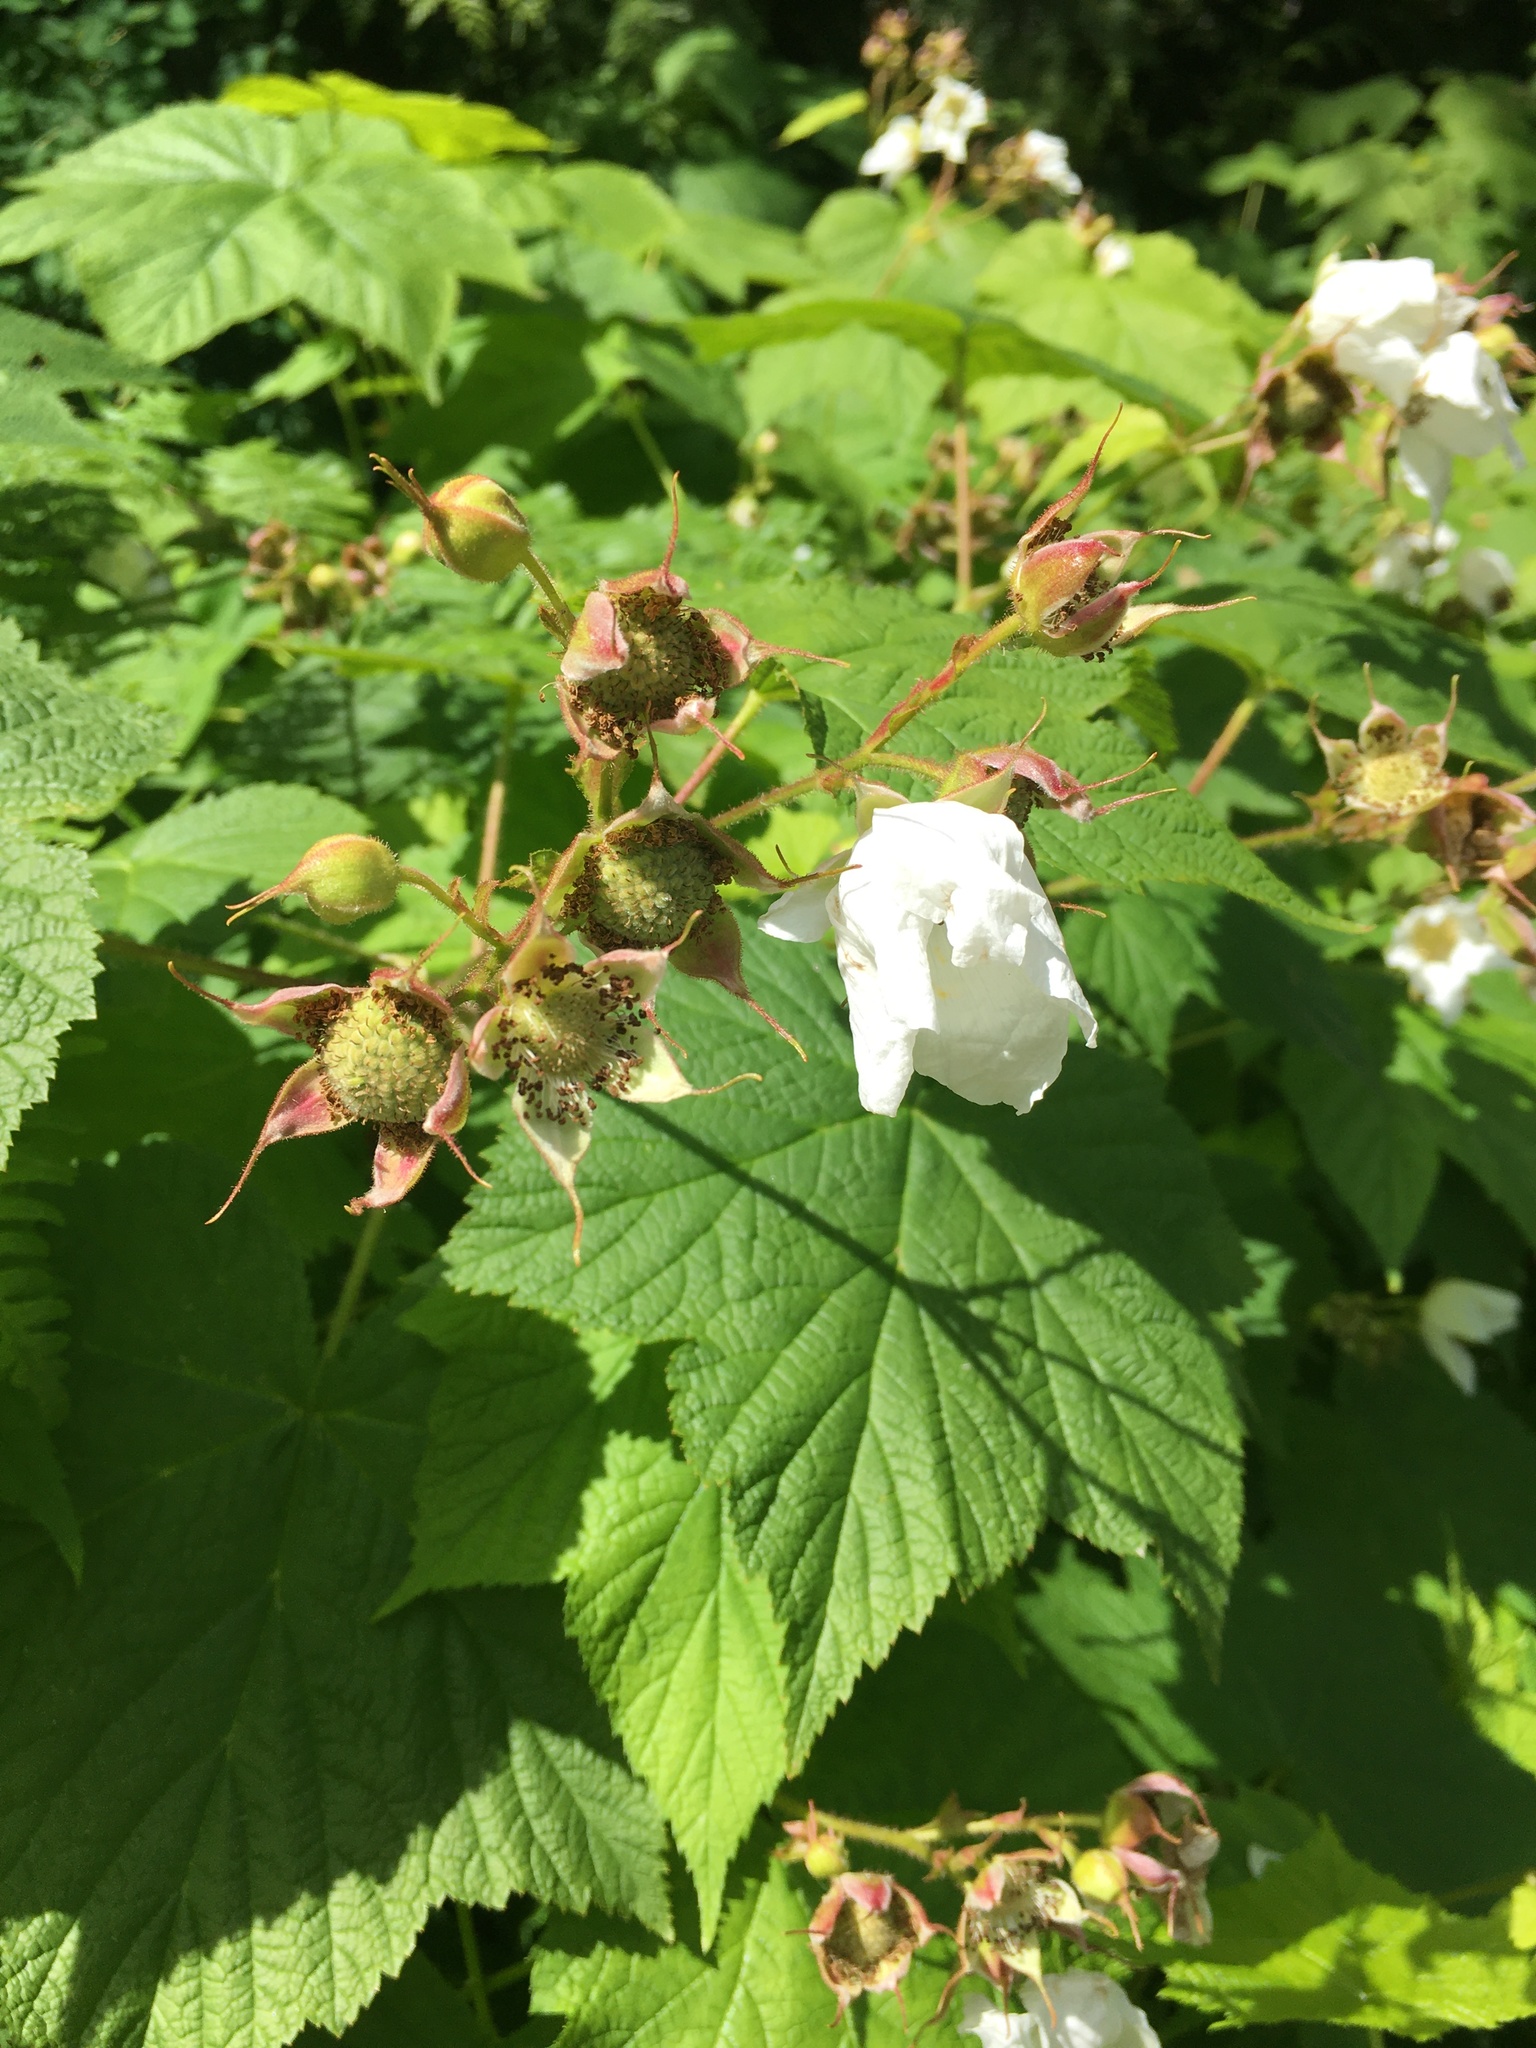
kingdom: Plantae
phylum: Tracheophyta
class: Magnoliopsida
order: Rosales
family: Rosaceae
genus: Rubus
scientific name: Rubus parviflorus
